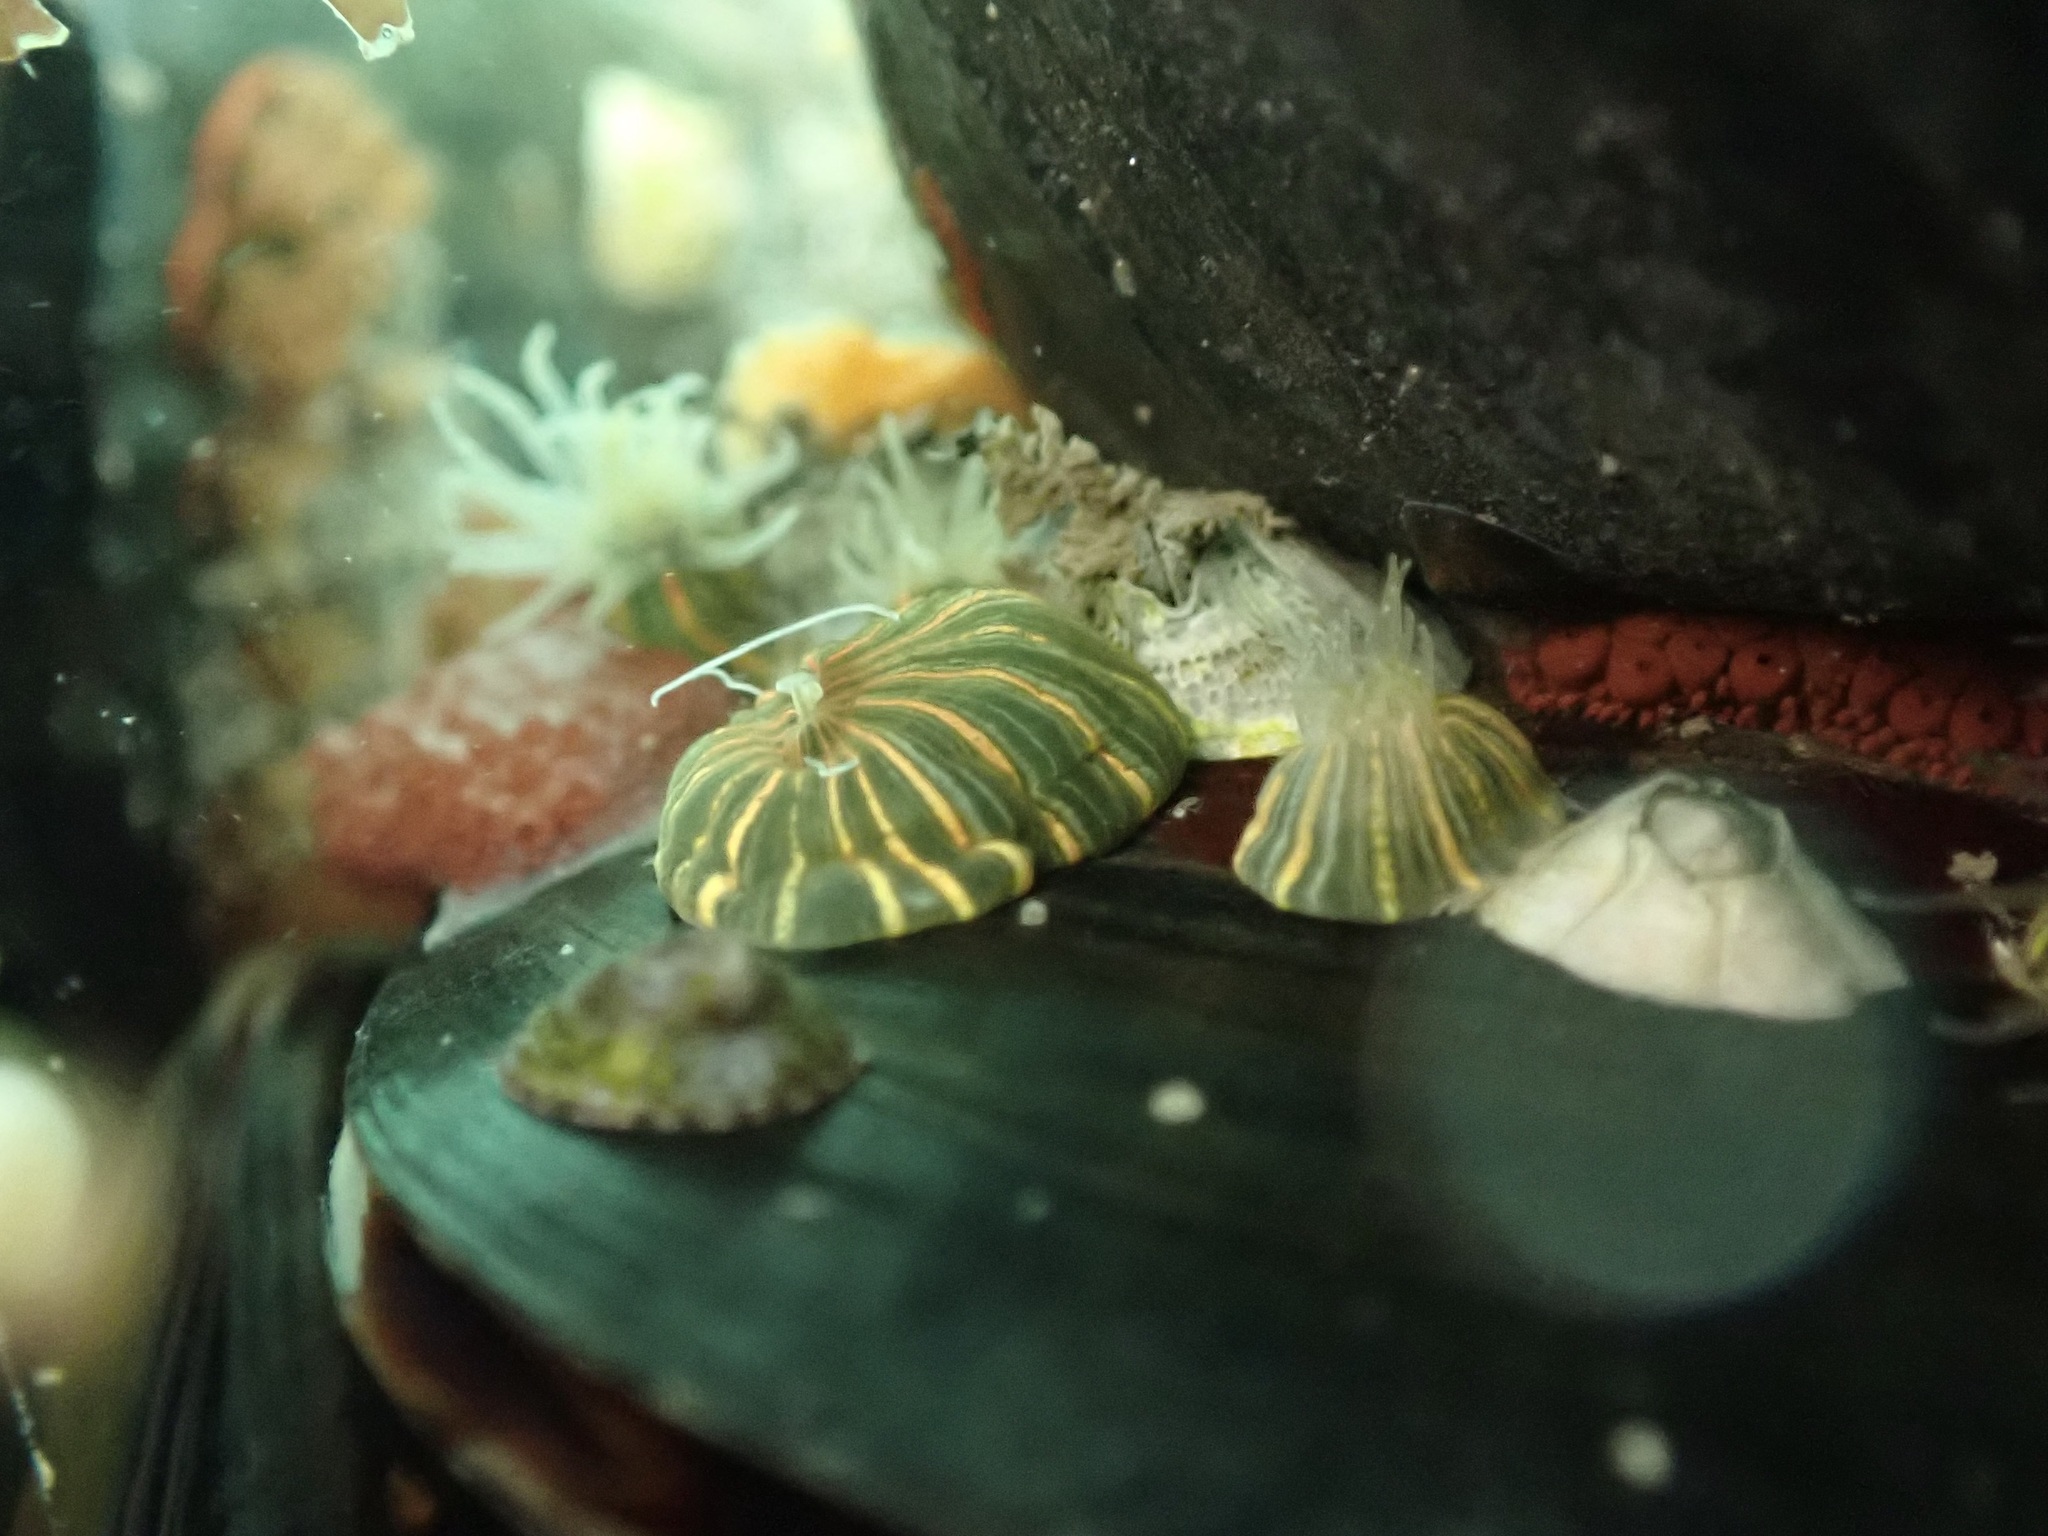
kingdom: Animalia
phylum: Cnidaria
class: Anthozoa
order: Actiniaria
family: Diadumenidae
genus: Diadumene
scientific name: Diadumene lineata
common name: Orange-striped anemone
